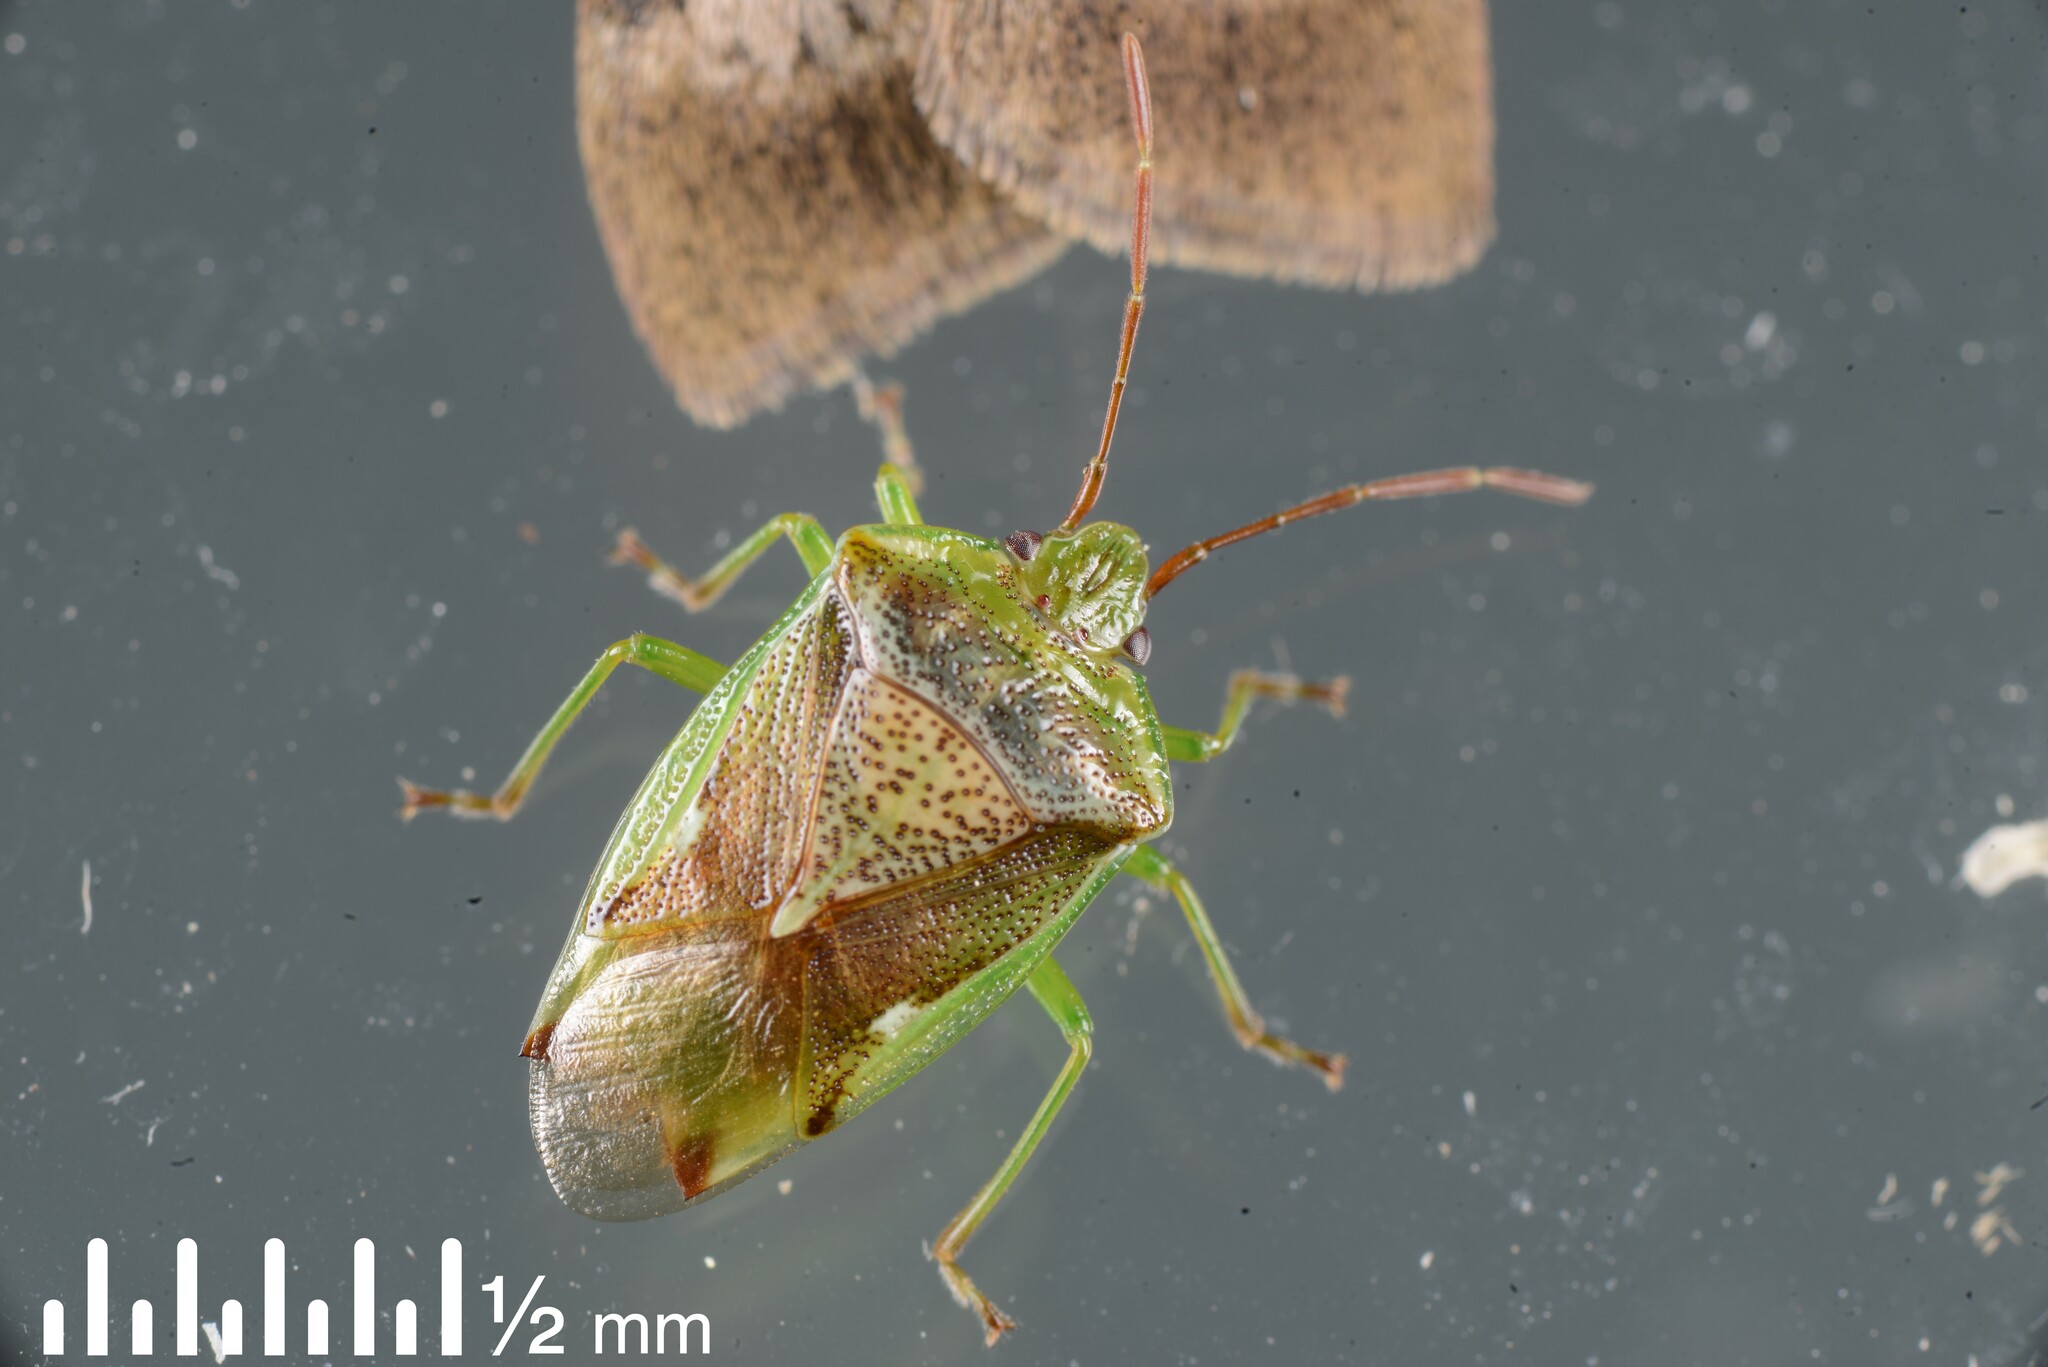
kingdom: Animalia
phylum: Arthropoda
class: Insecta
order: Hemiptera
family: Acanthosomatidae
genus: Oncacontias
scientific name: Oncacontias vittatus
